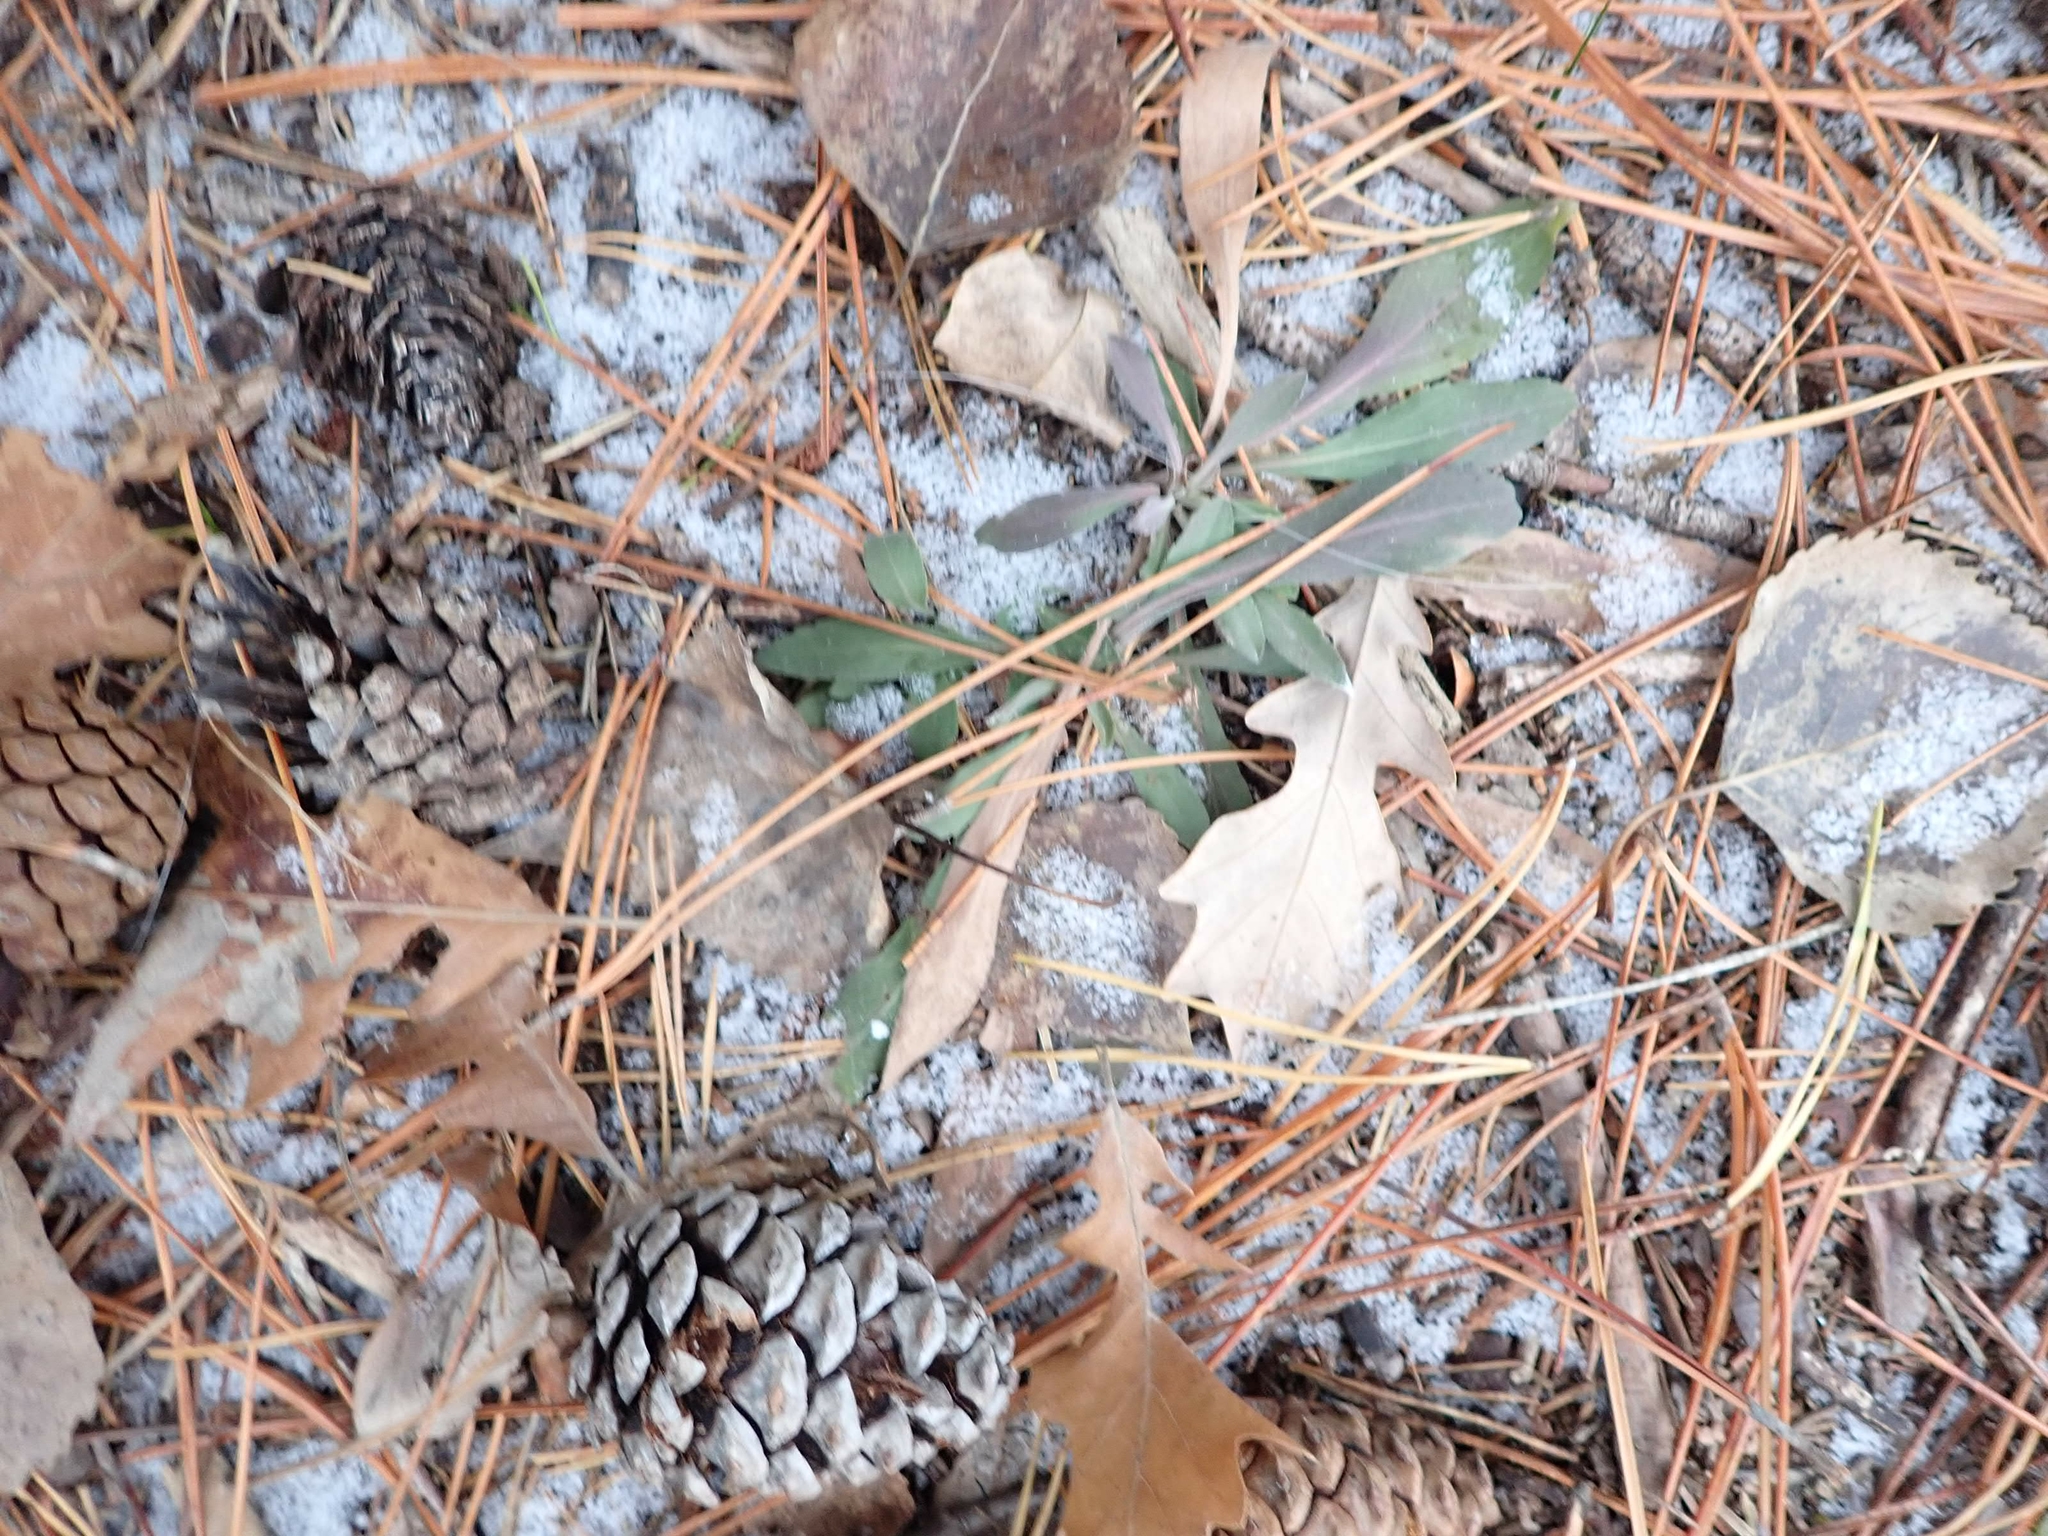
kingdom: Plantae
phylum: Tracheophyta
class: Pinopsida
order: Pinales
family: Pinaceae
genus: Pinus
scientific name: Pinus resinosa
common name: Norway pine
